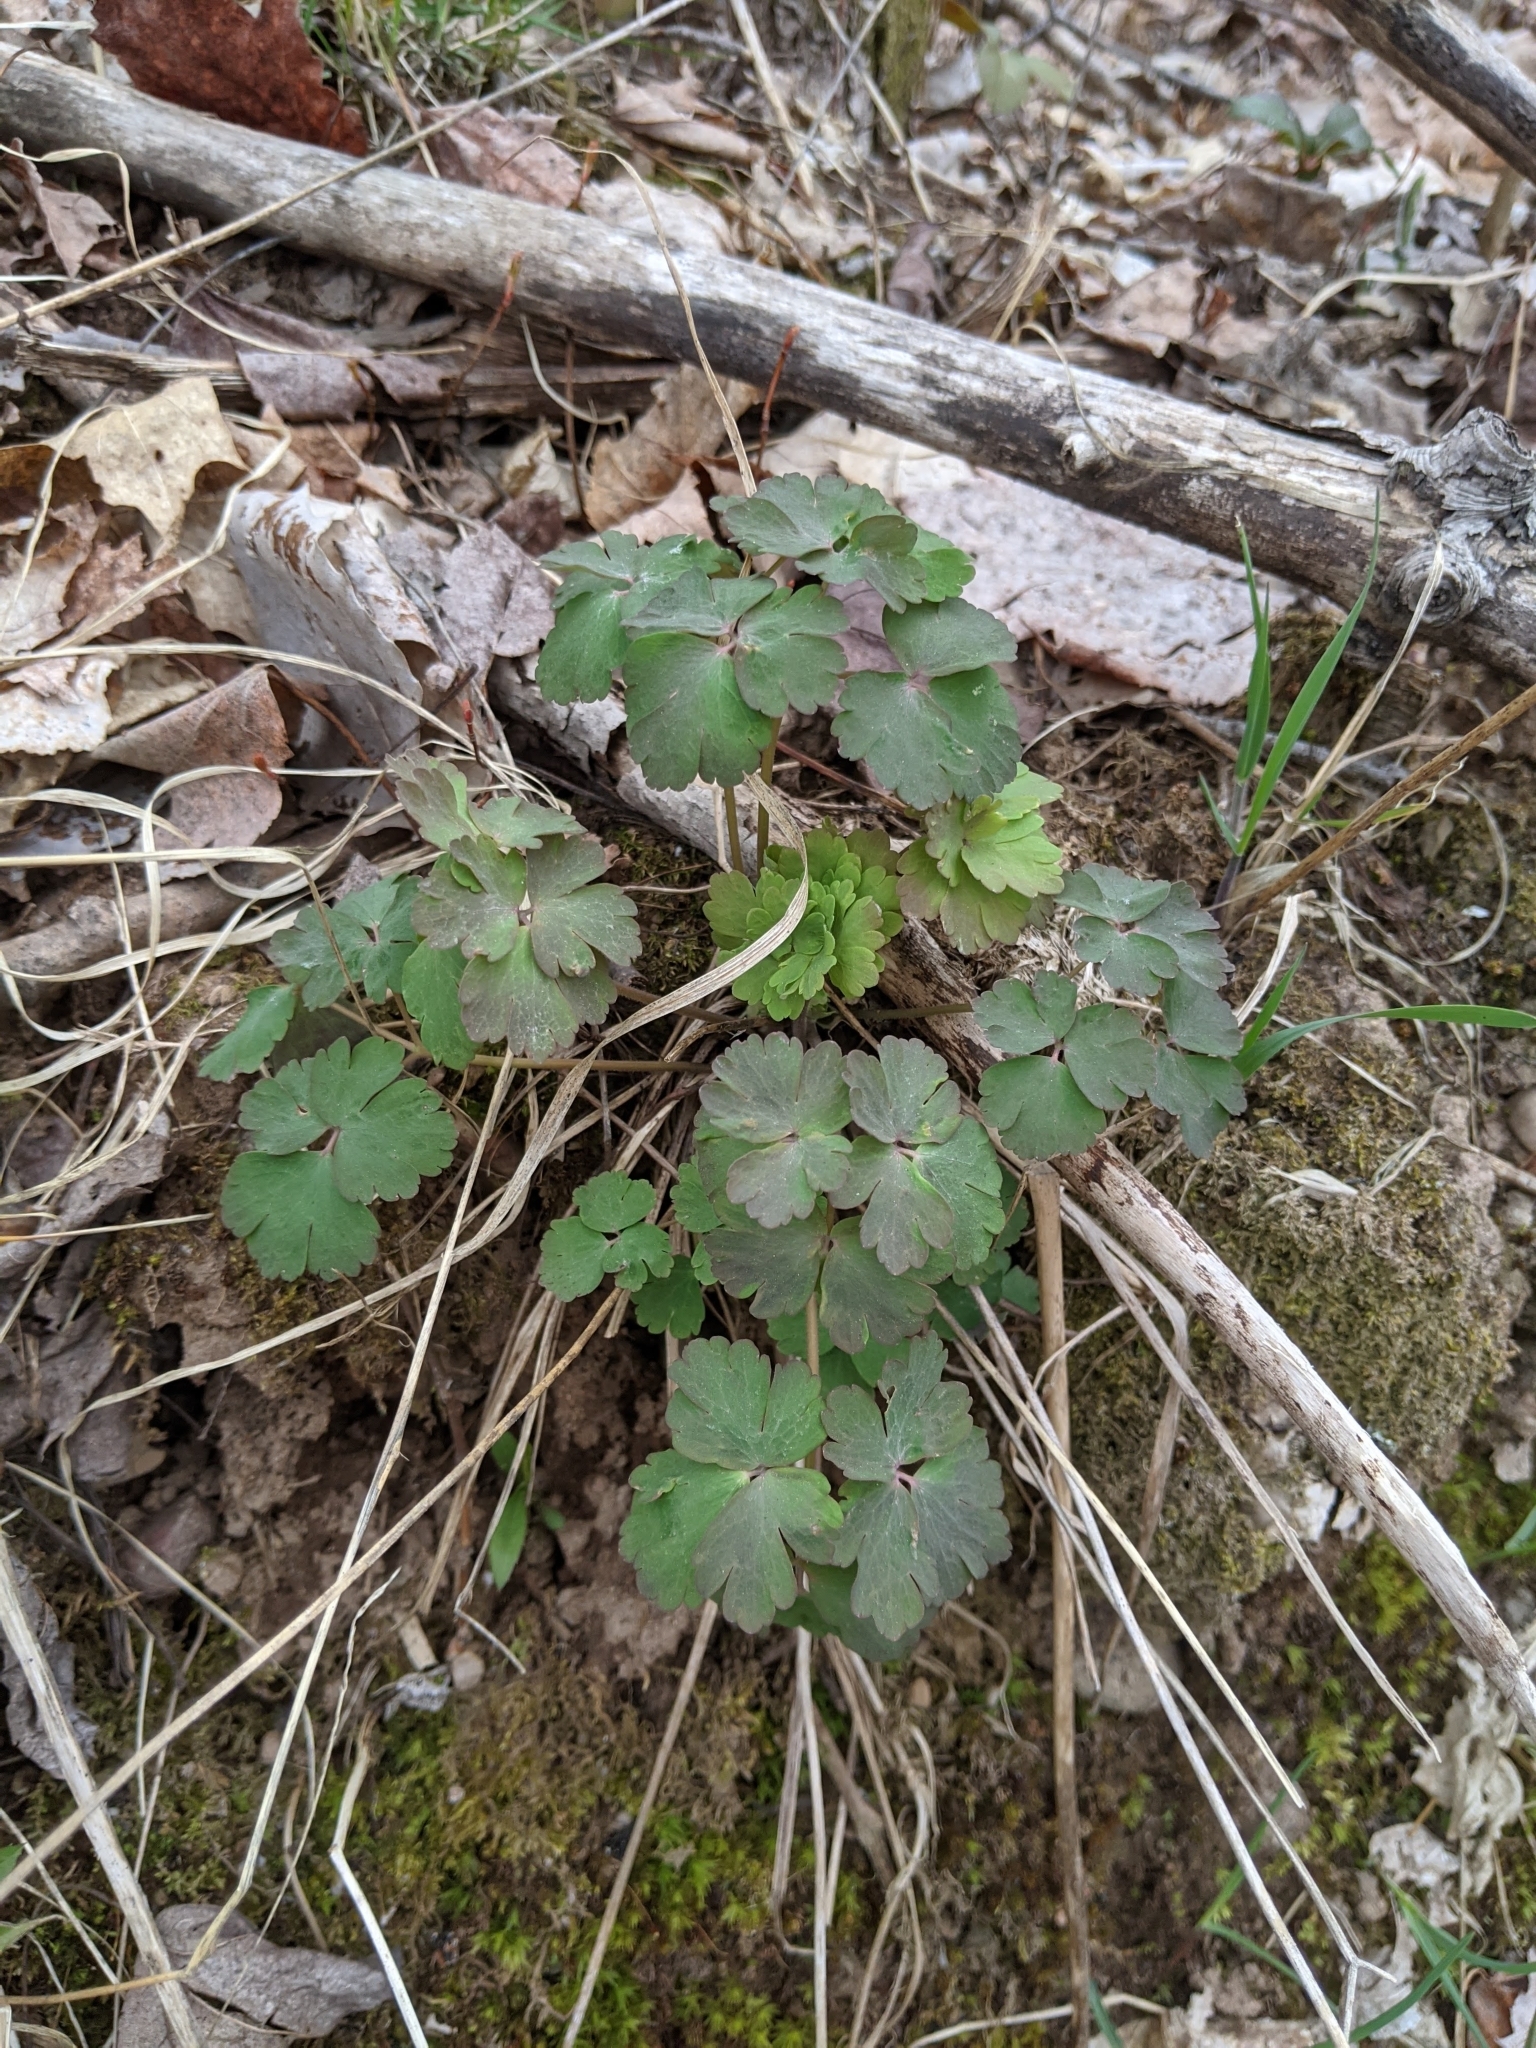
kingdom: Plantae
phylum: Tracheophyta
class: Magnoliopsida
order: Ranunculales
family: Ranunculaceae
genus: Aquilegia
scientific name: Aquilegia canadensis
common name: American columbine
